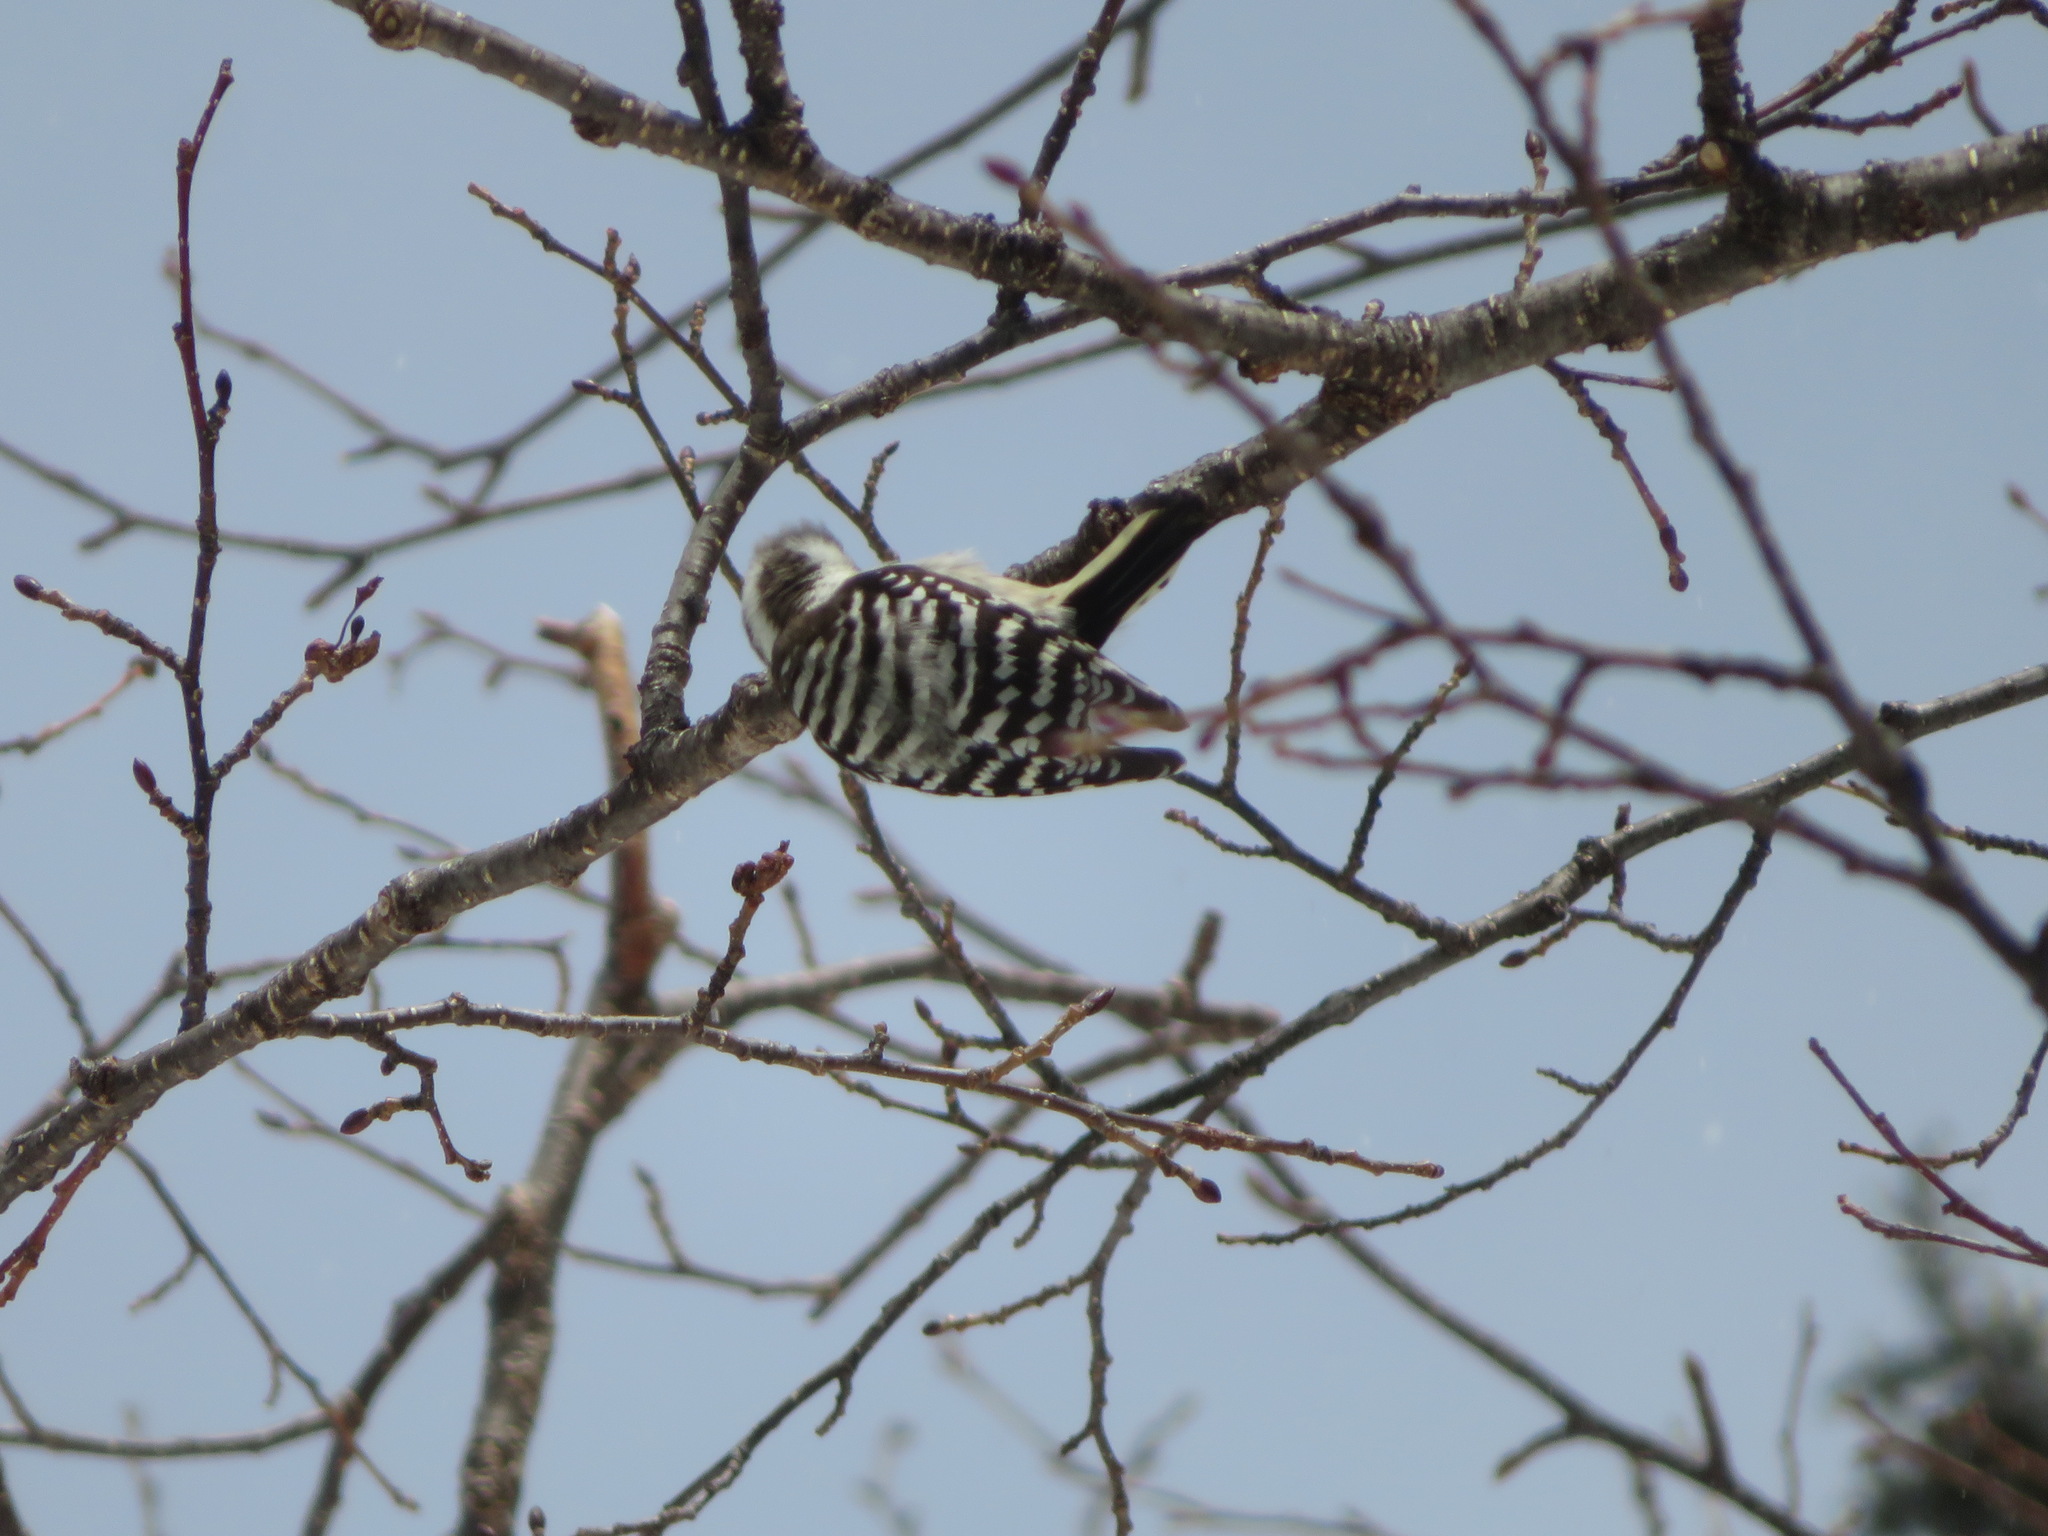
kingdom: Animalia
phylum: Chordata
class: Aves
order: Piciformes
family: Picidae
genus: Yungipicus
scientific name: Yungipicus kizuki
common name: Japanese pygmy woodpecker
